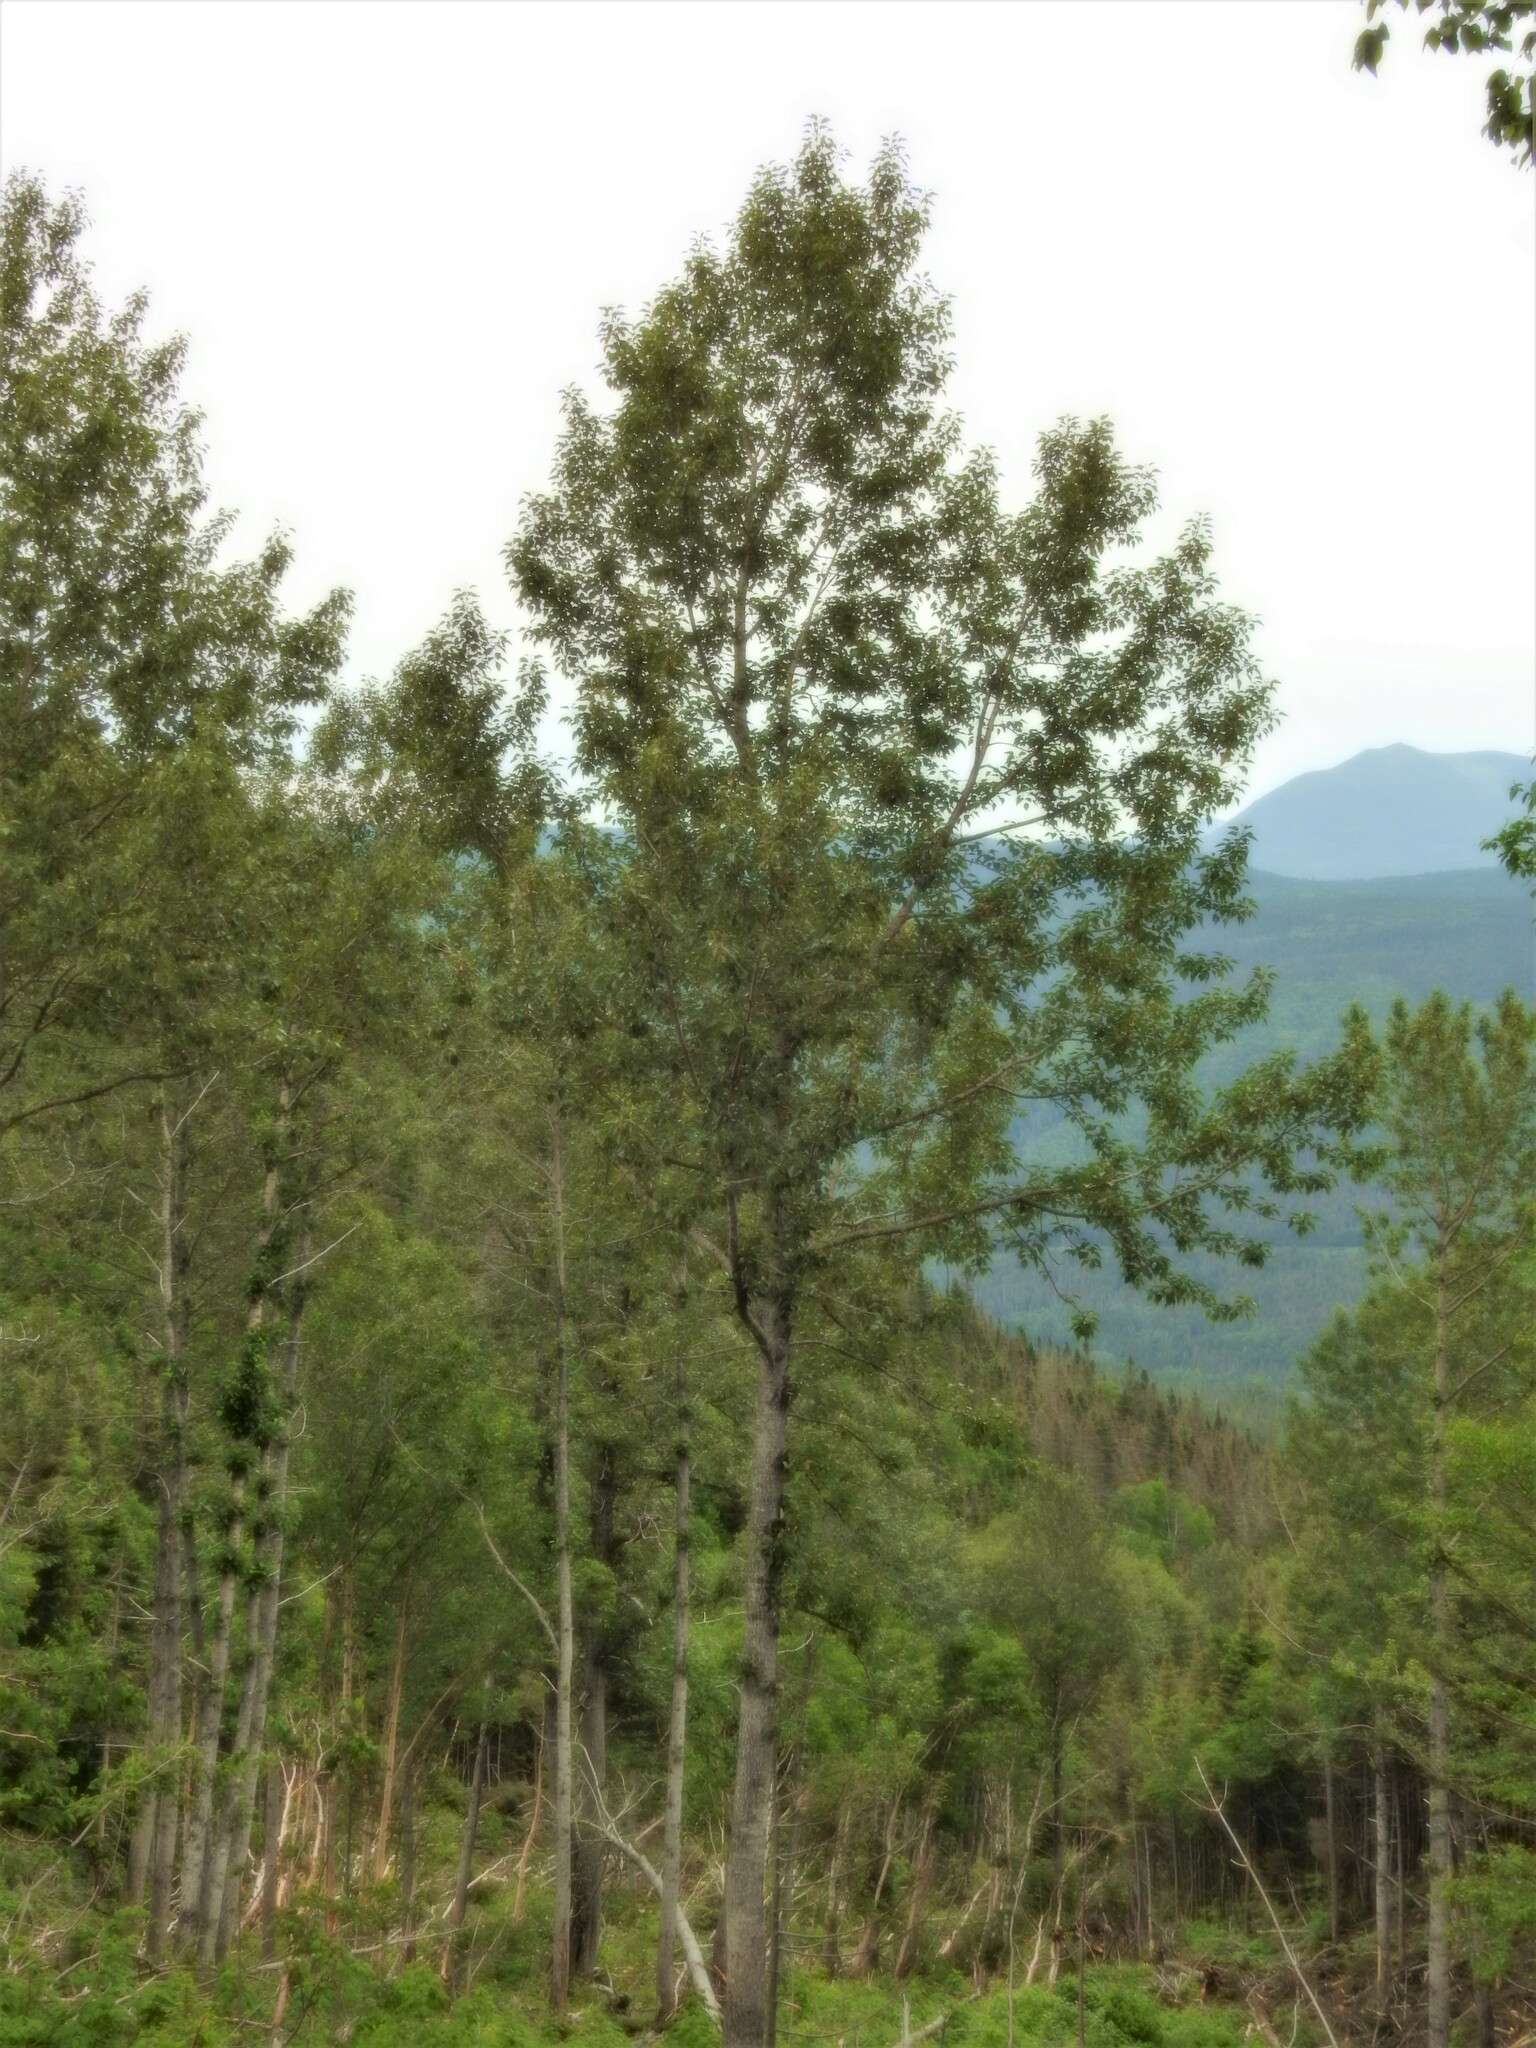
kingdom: Plantae
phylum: Tracheophyta
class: Magnoliopsida
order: Malpighiales
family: Salicaceae
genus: Populus
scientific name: Populus balsamifera
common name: Balsam poplar
